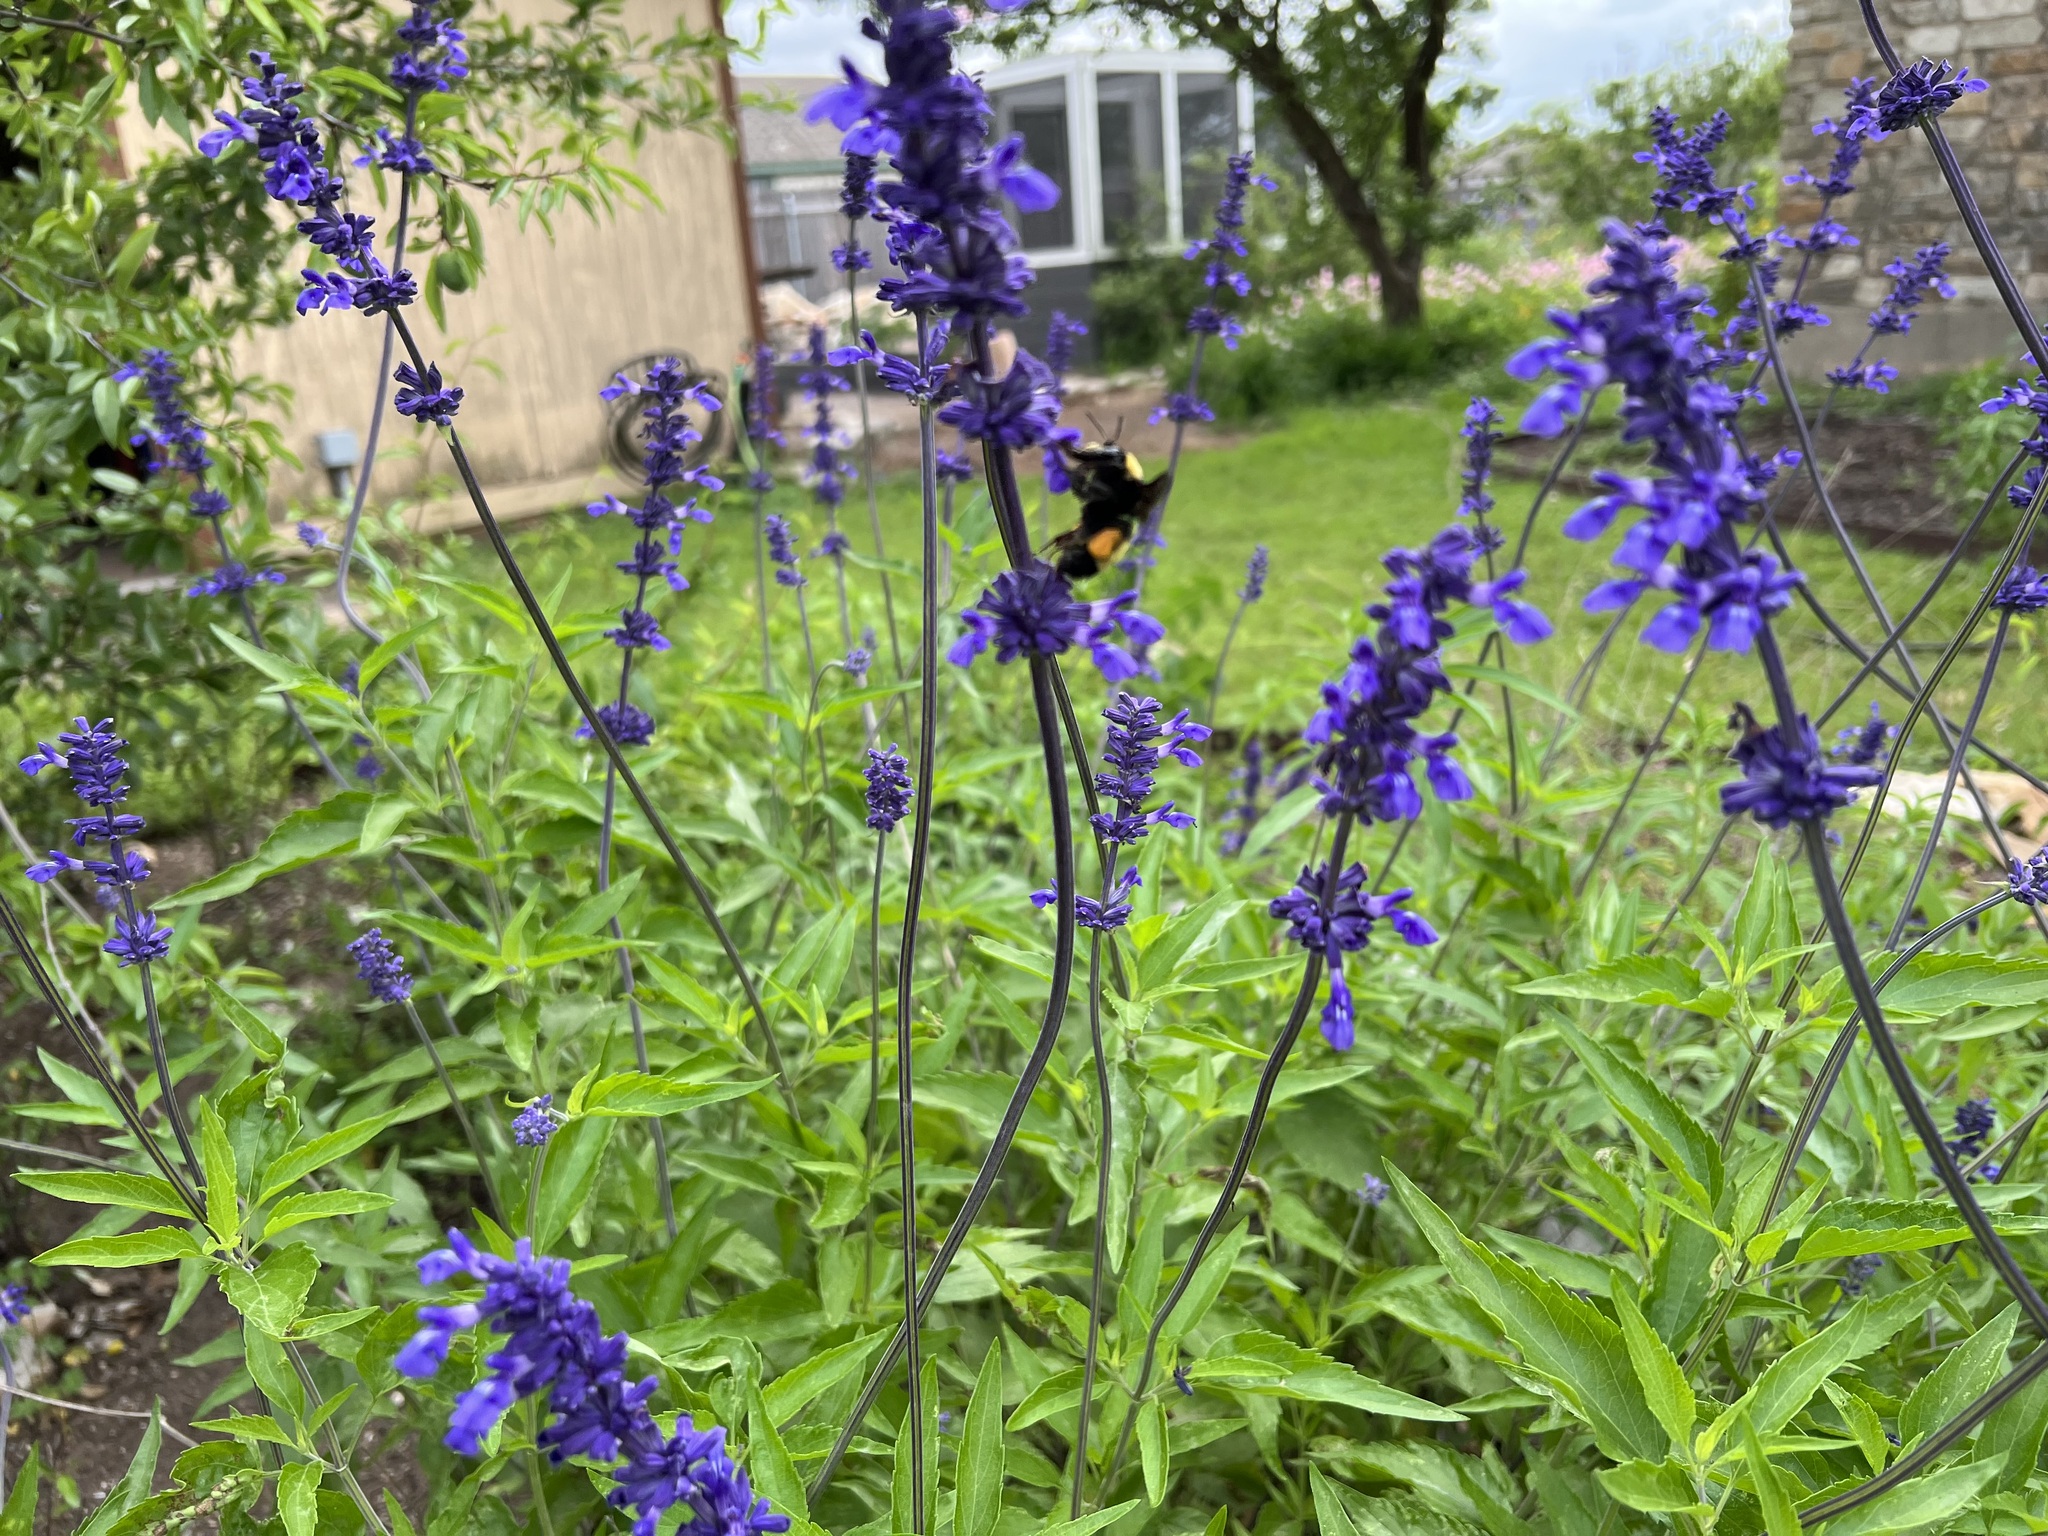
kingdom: Animalia
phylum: Arthropoda
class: Insecta
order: Hymenoptera
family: Apidae
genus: Bombus
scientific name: Bombus pensylvanicus
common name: Bumble bee
